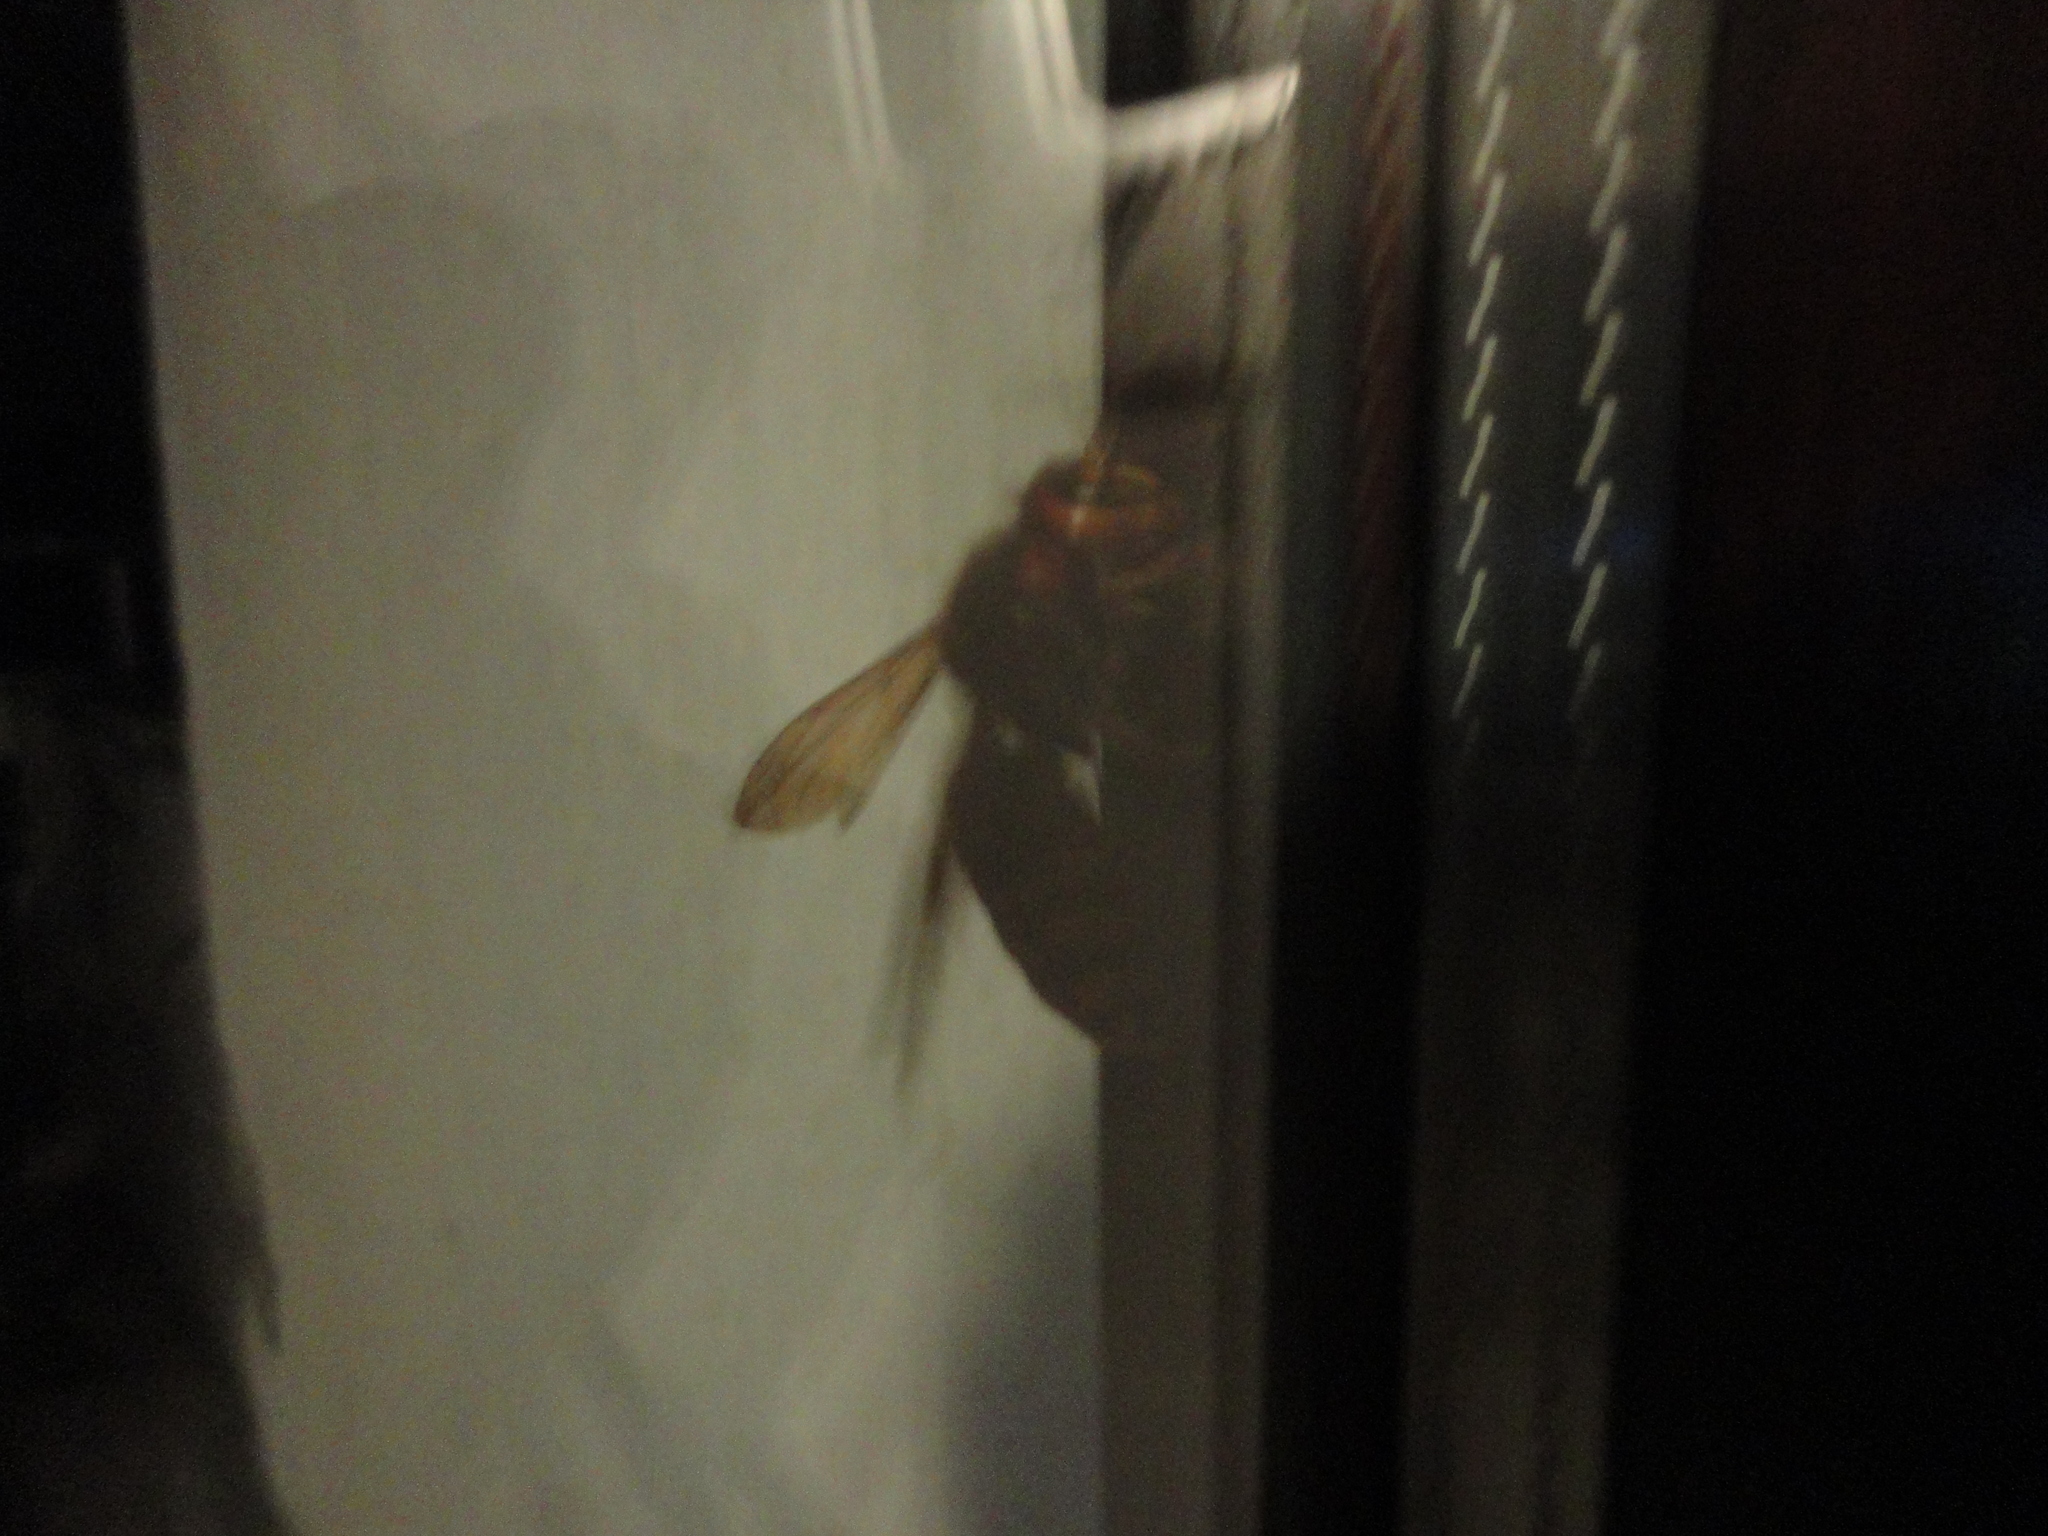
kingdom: Animalia
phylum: Arthropoda
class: Insecta
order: Hymenoptera
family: Vespidae
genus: Vespa
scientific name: Vespa crabro
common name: Hornet
